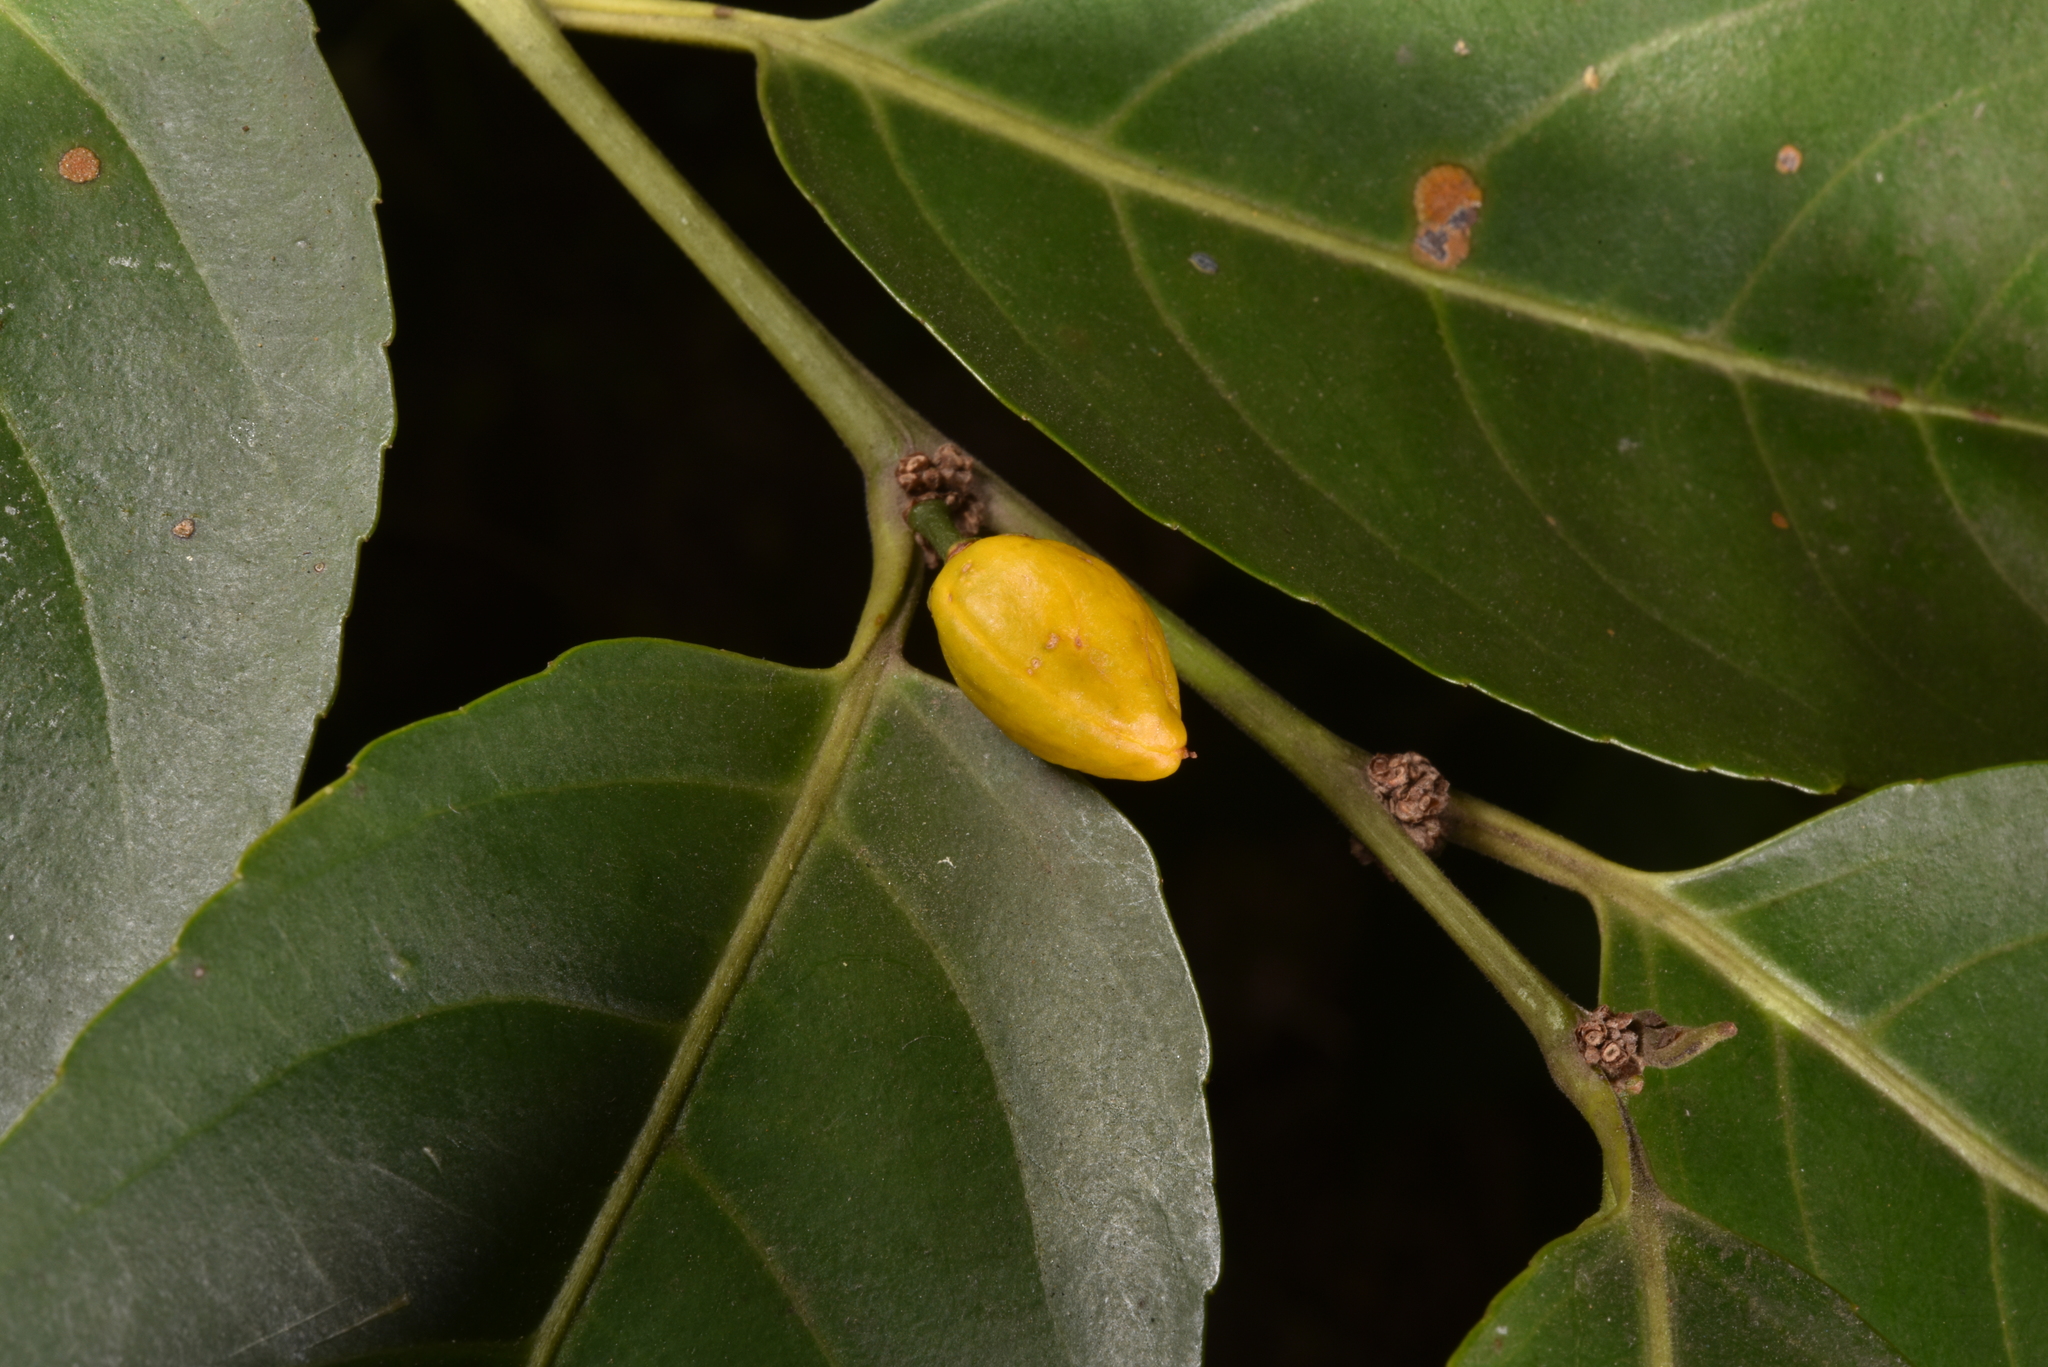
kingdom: Plantae
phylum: Tracheophyta
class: Magnoliopsida
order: Malpighiales
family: Salicaceae
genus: Casearia
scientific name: Casearia glomerata
